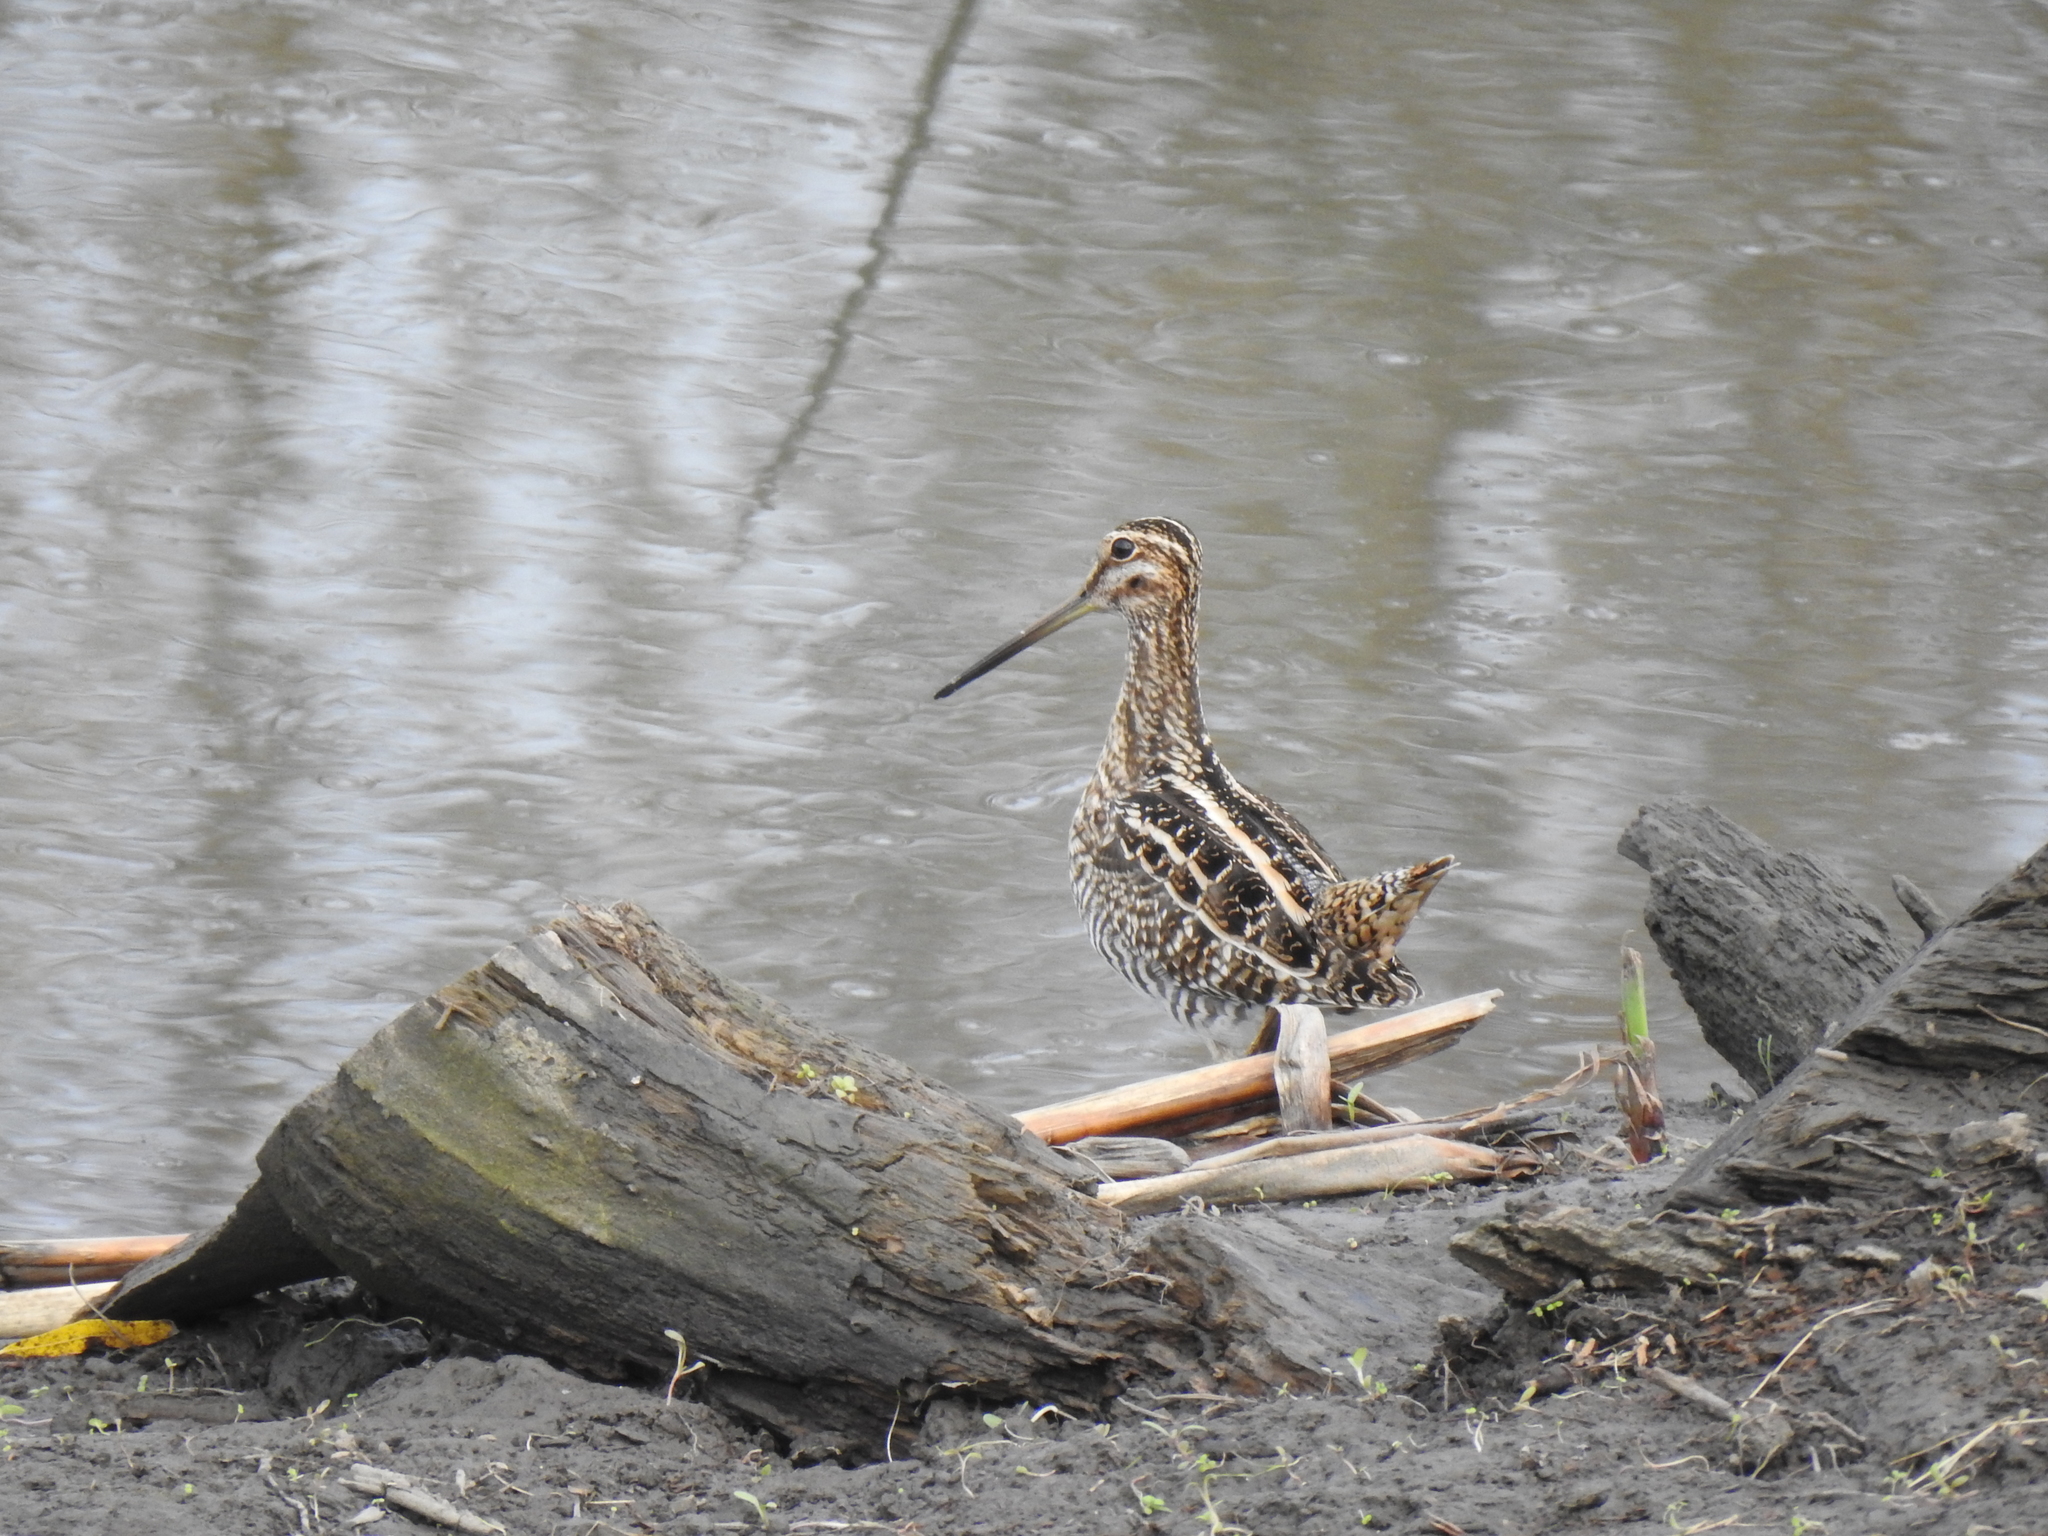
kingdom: Animalia
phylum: Chordata
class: Aves
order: Charadriiformes
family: Scolopacidae
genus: Gallinago
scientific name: Gallinago delicata
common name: Wilson's snipe
